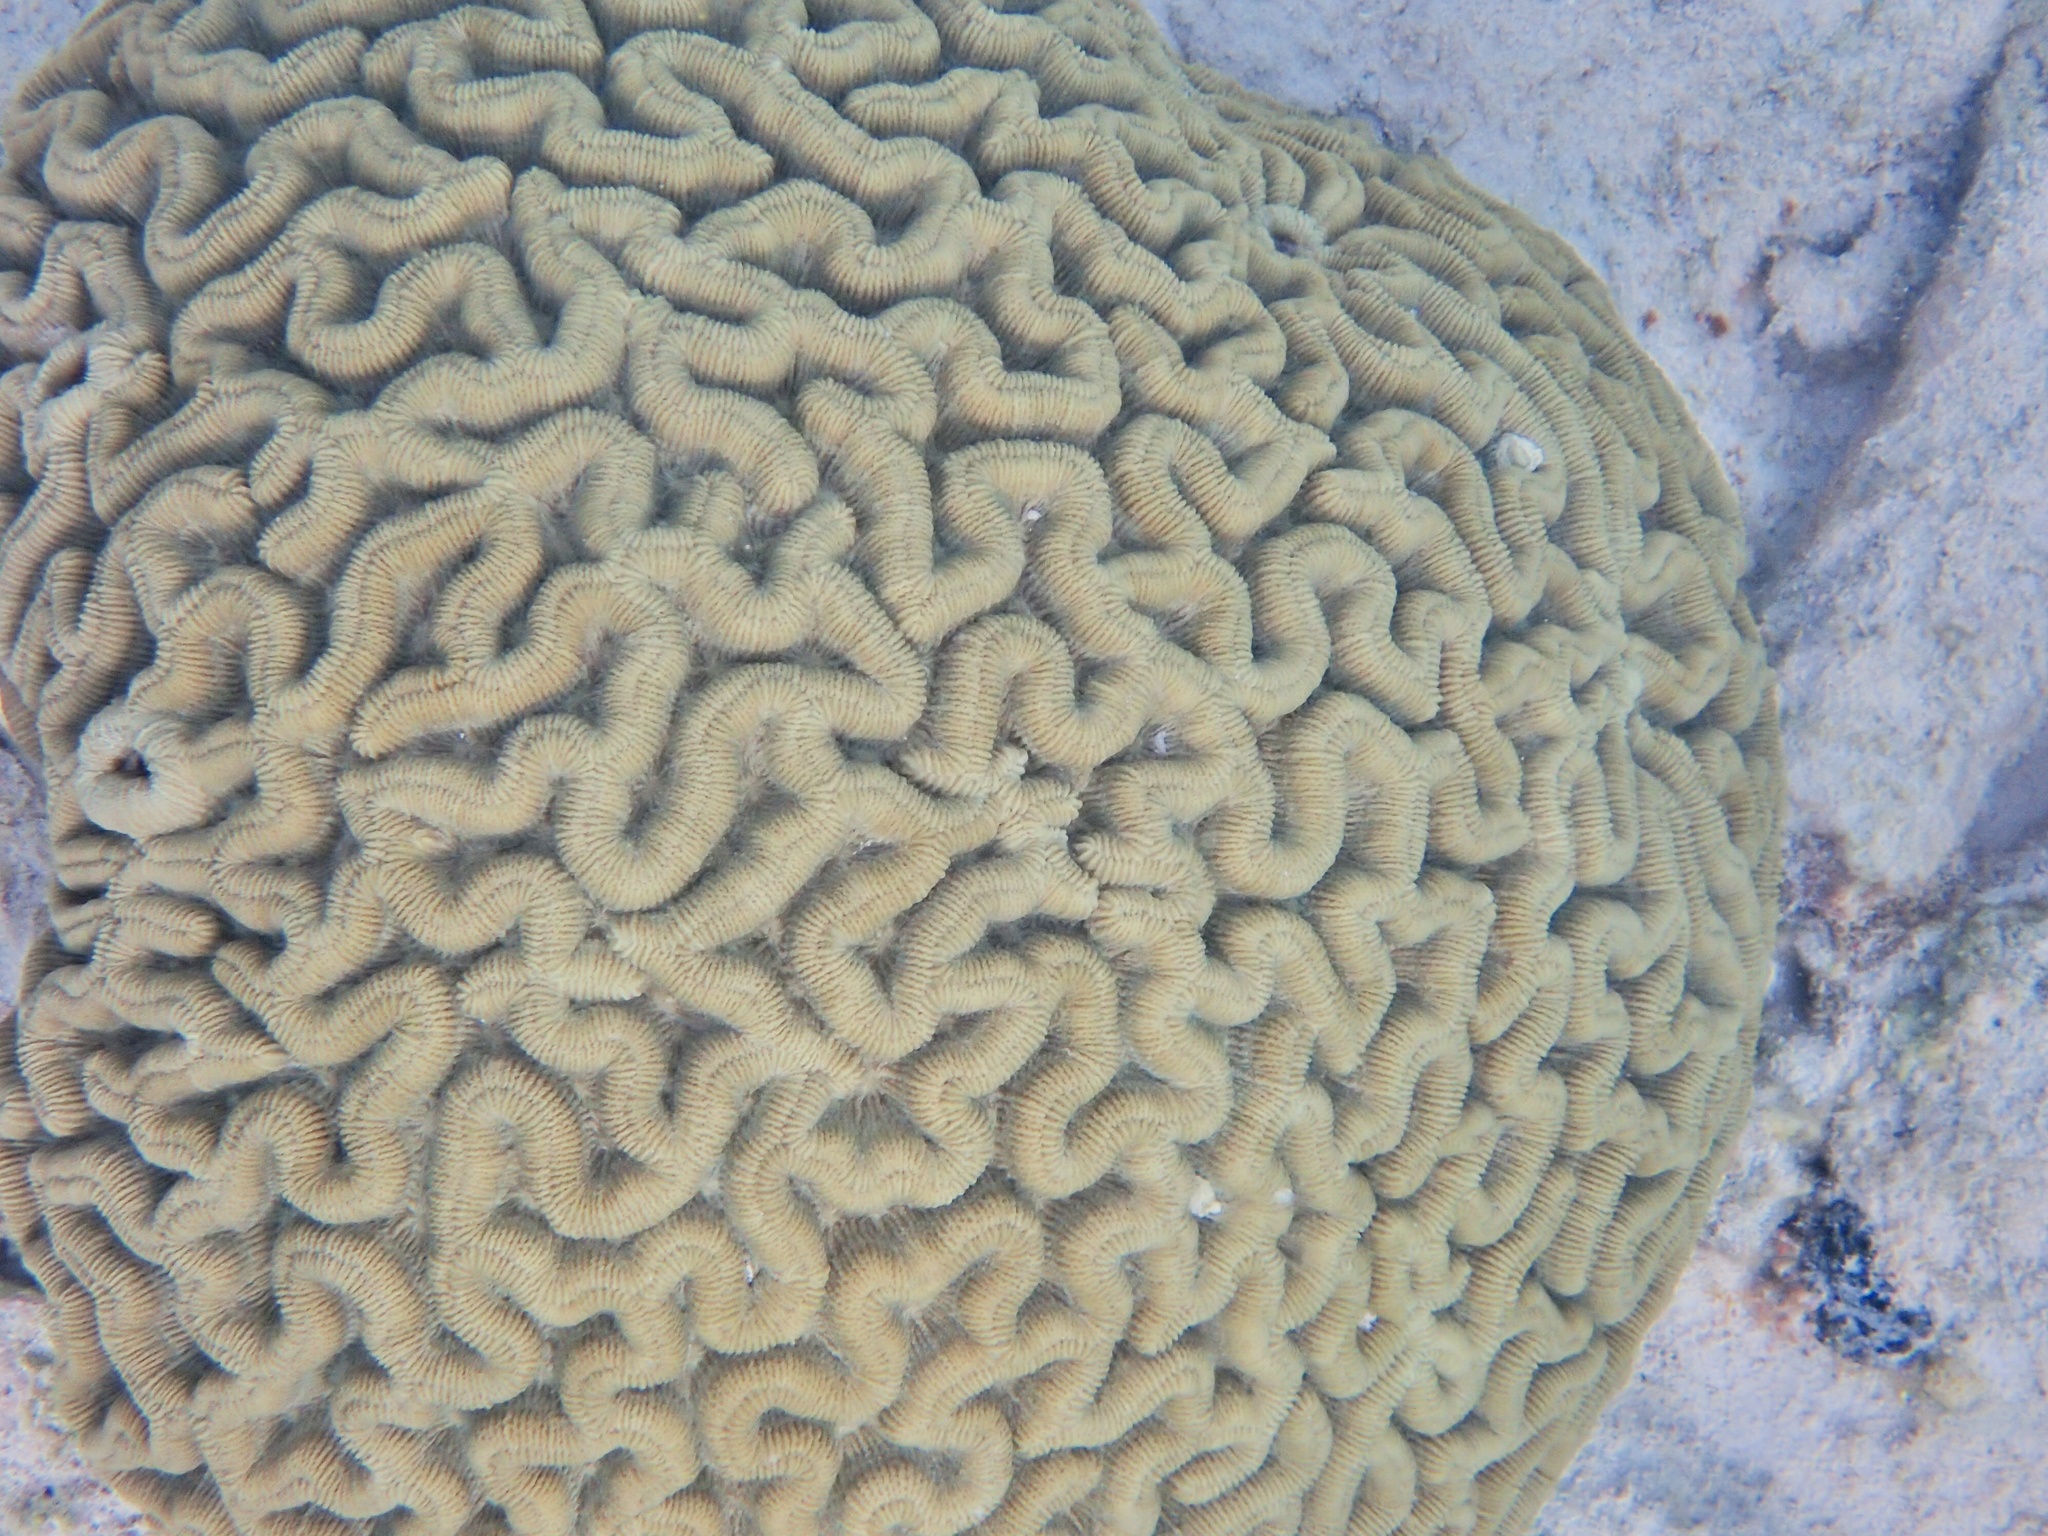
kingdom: Animalia
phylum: Cnidaria
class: Anthozoa
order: Scleractinia
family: Faviidae
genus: Colpophyllia
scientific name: Colpophyllia natans
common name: Boulder brain coral
